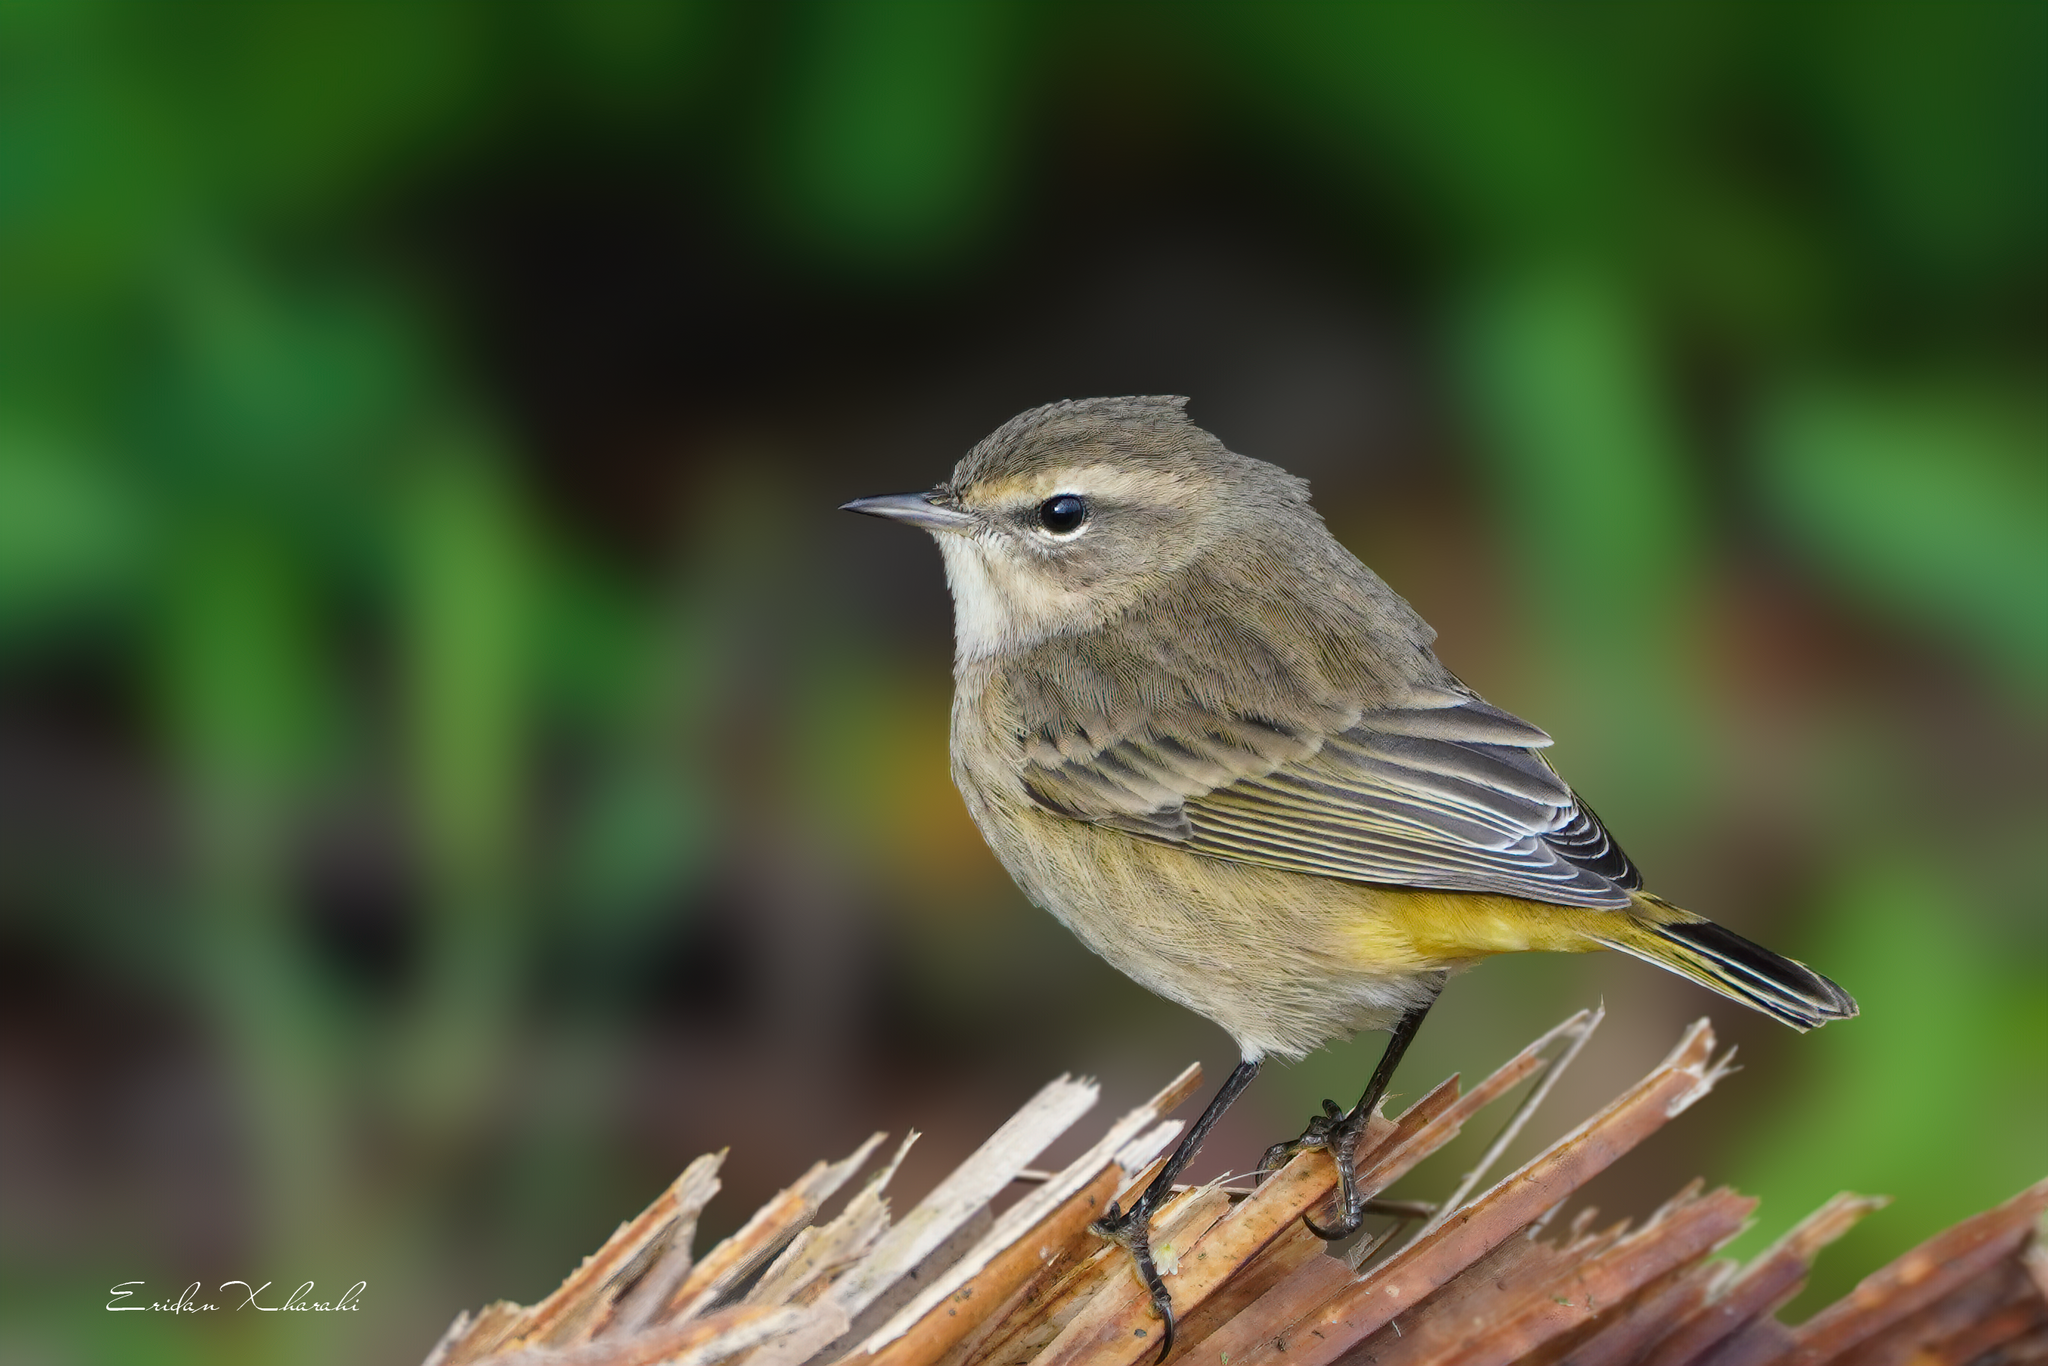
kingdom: Animalia
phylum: Chordata
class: Aves
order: Passeriformes
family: Parulidae
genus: Setophaga
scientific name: Setophaga palmarum
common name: Palm warbler
